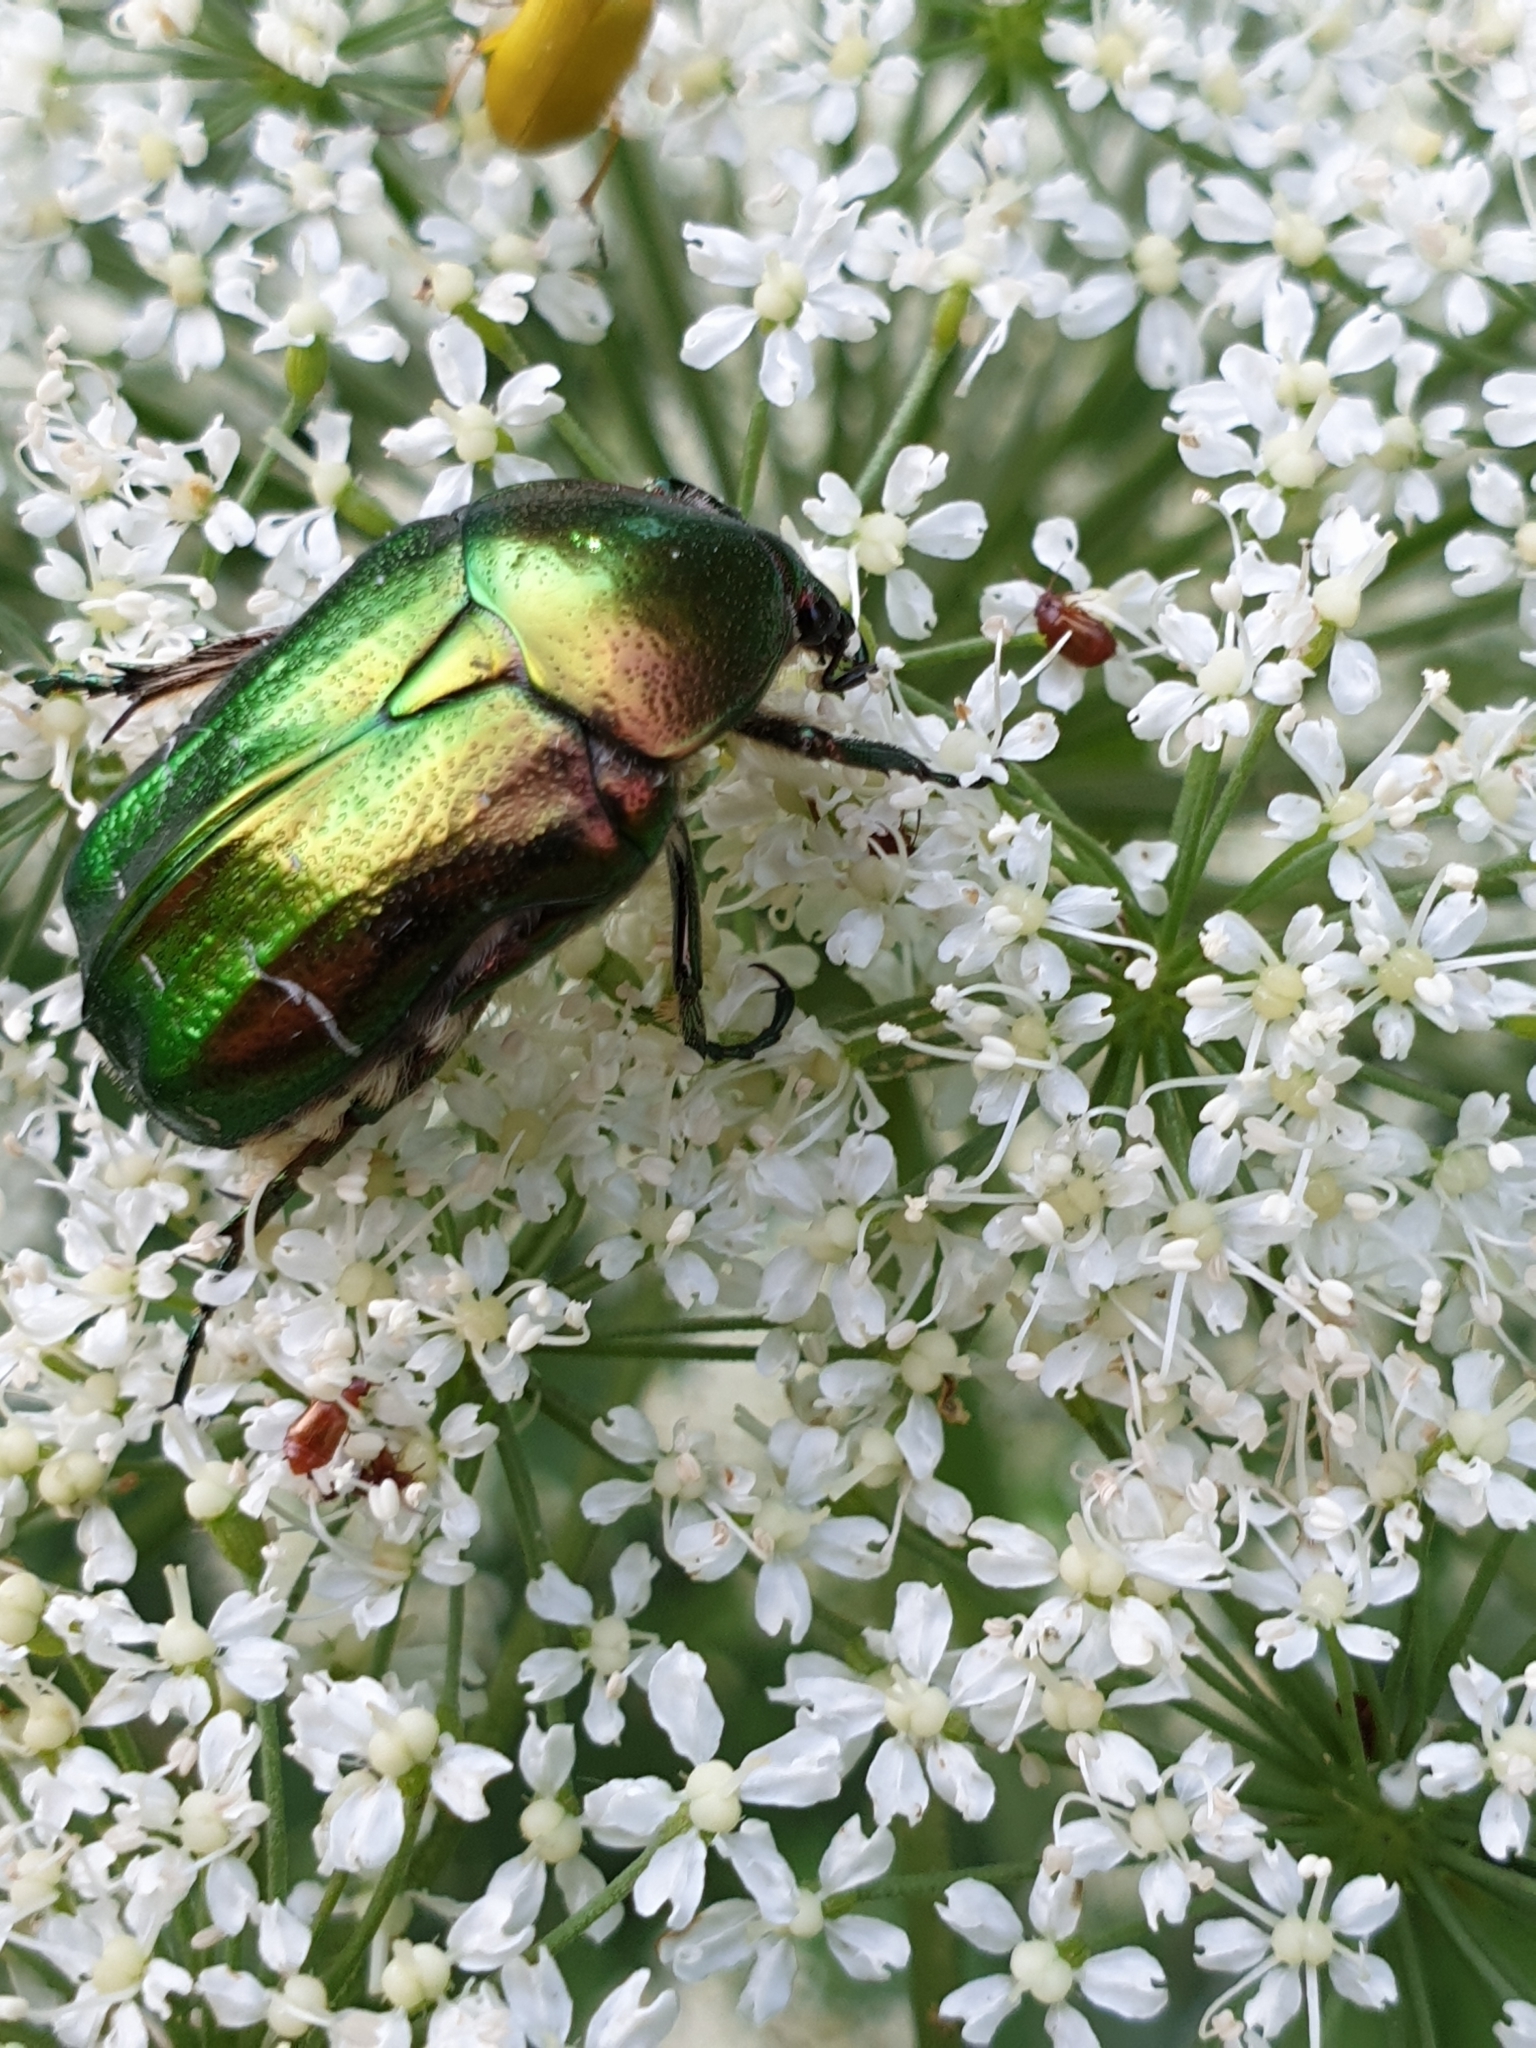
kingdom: Animalia
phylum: Arthropoda
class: Insecta
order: Coleoptera
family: Scarabaeidae
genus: Cetonia
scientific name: Cetonia aurata
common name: Rose chafer
